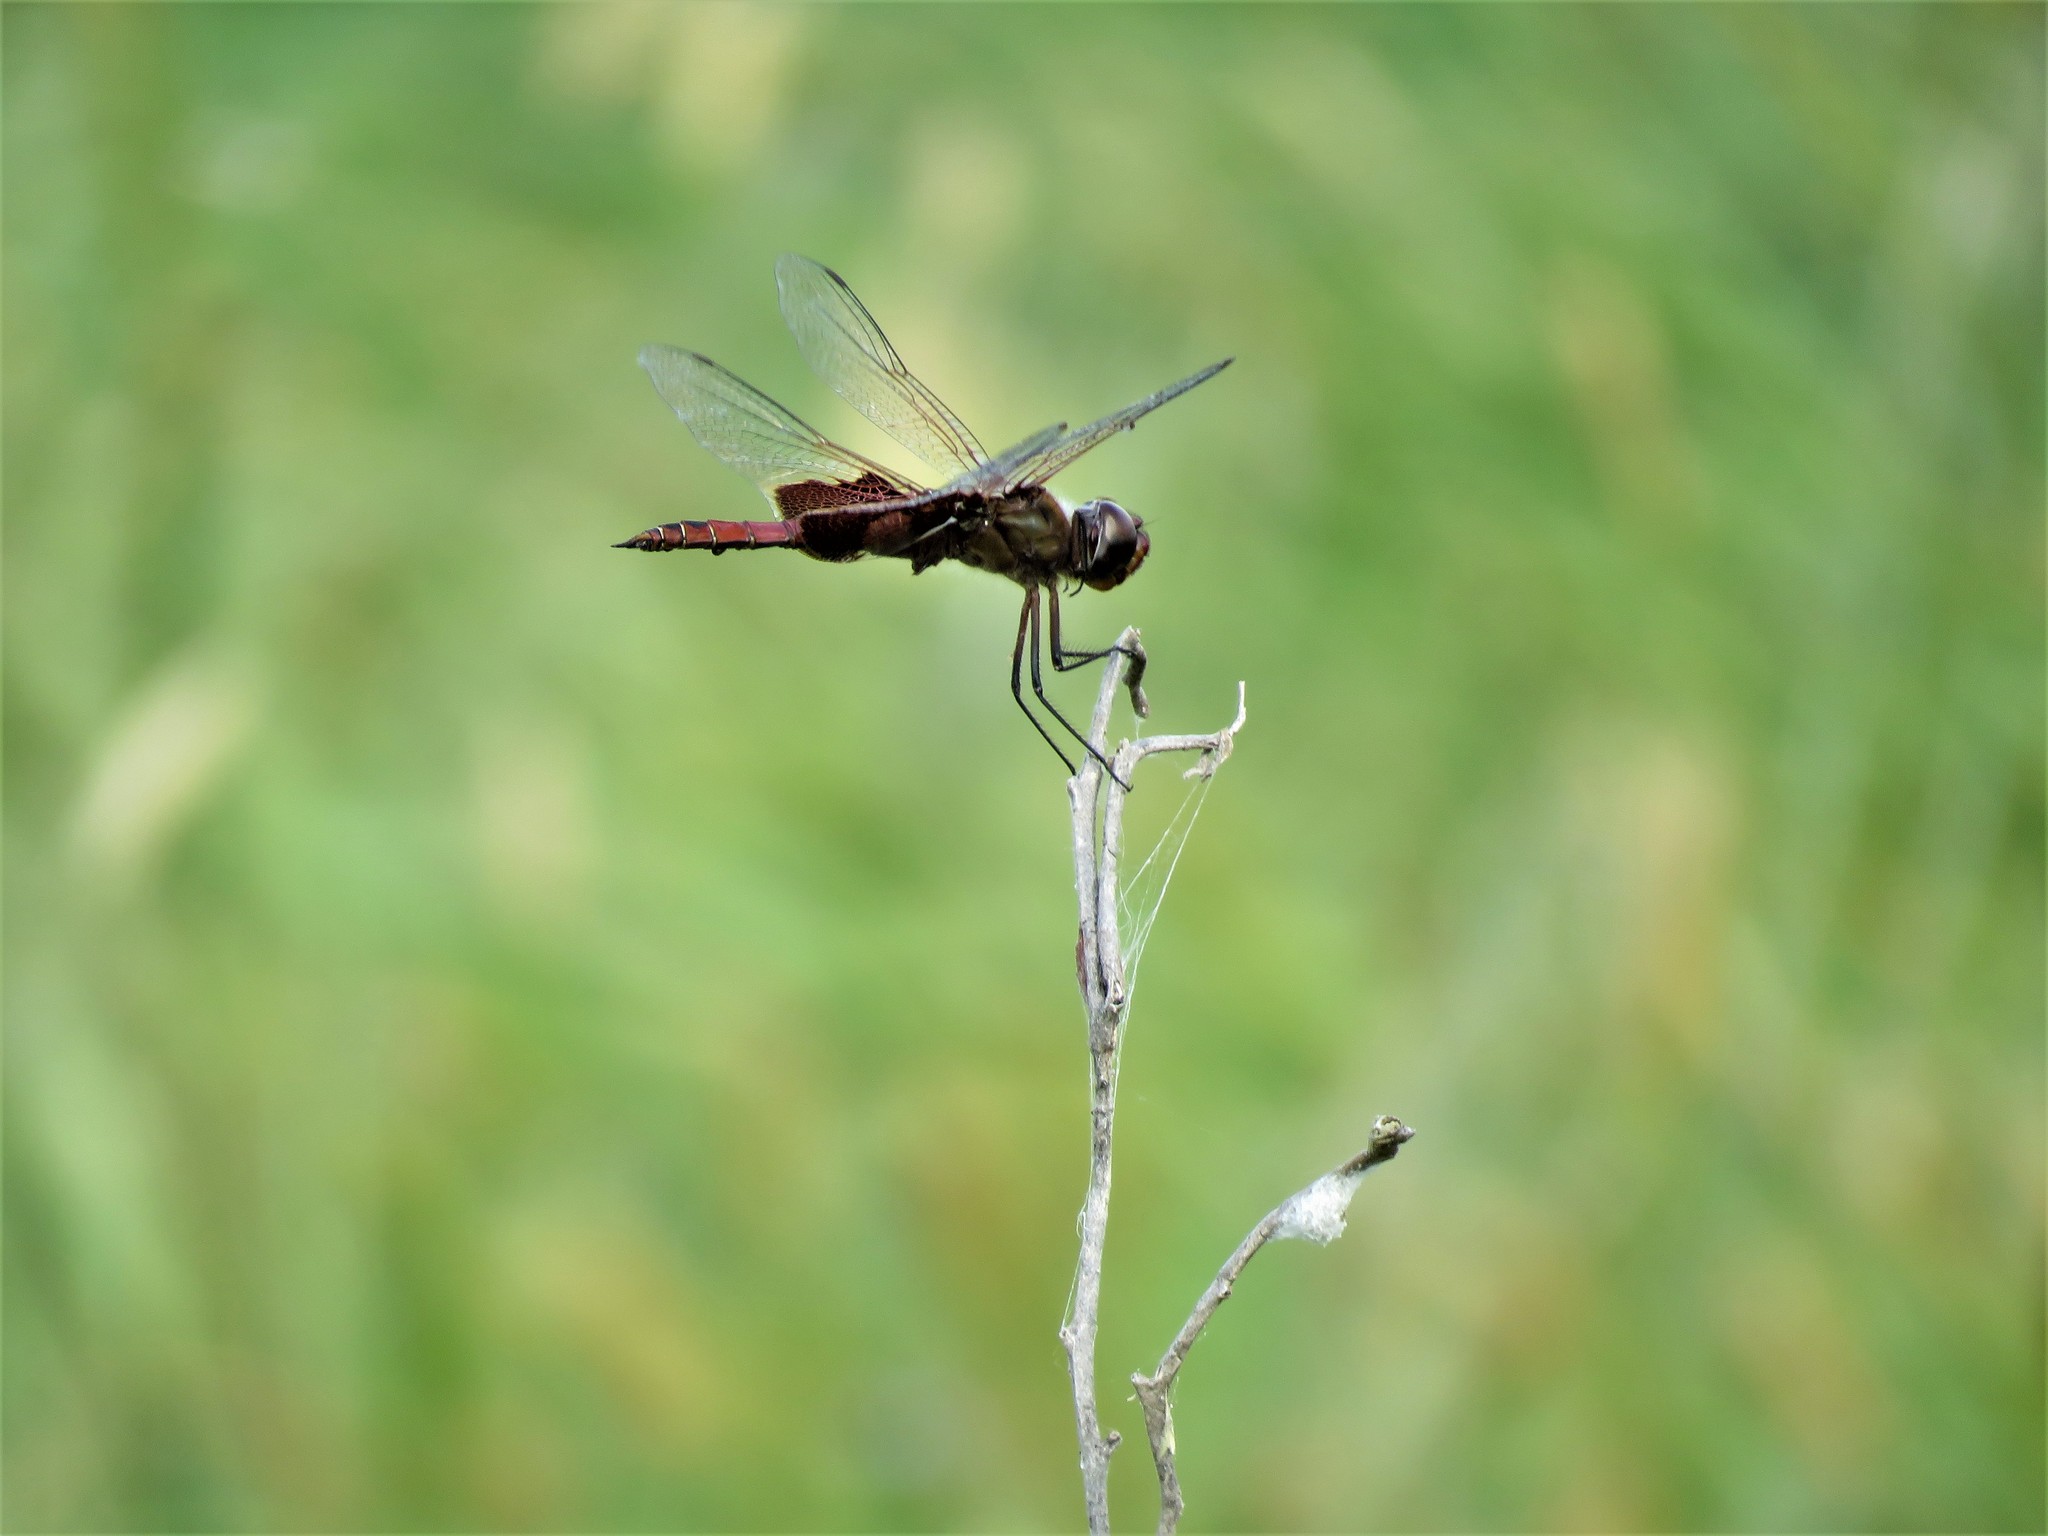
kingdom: Animalia
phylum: Arthropoda
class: Insecta
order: Odonata
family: Libellulidae
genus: Tramea
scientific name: Tramea onusta
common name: Red saddlebags
